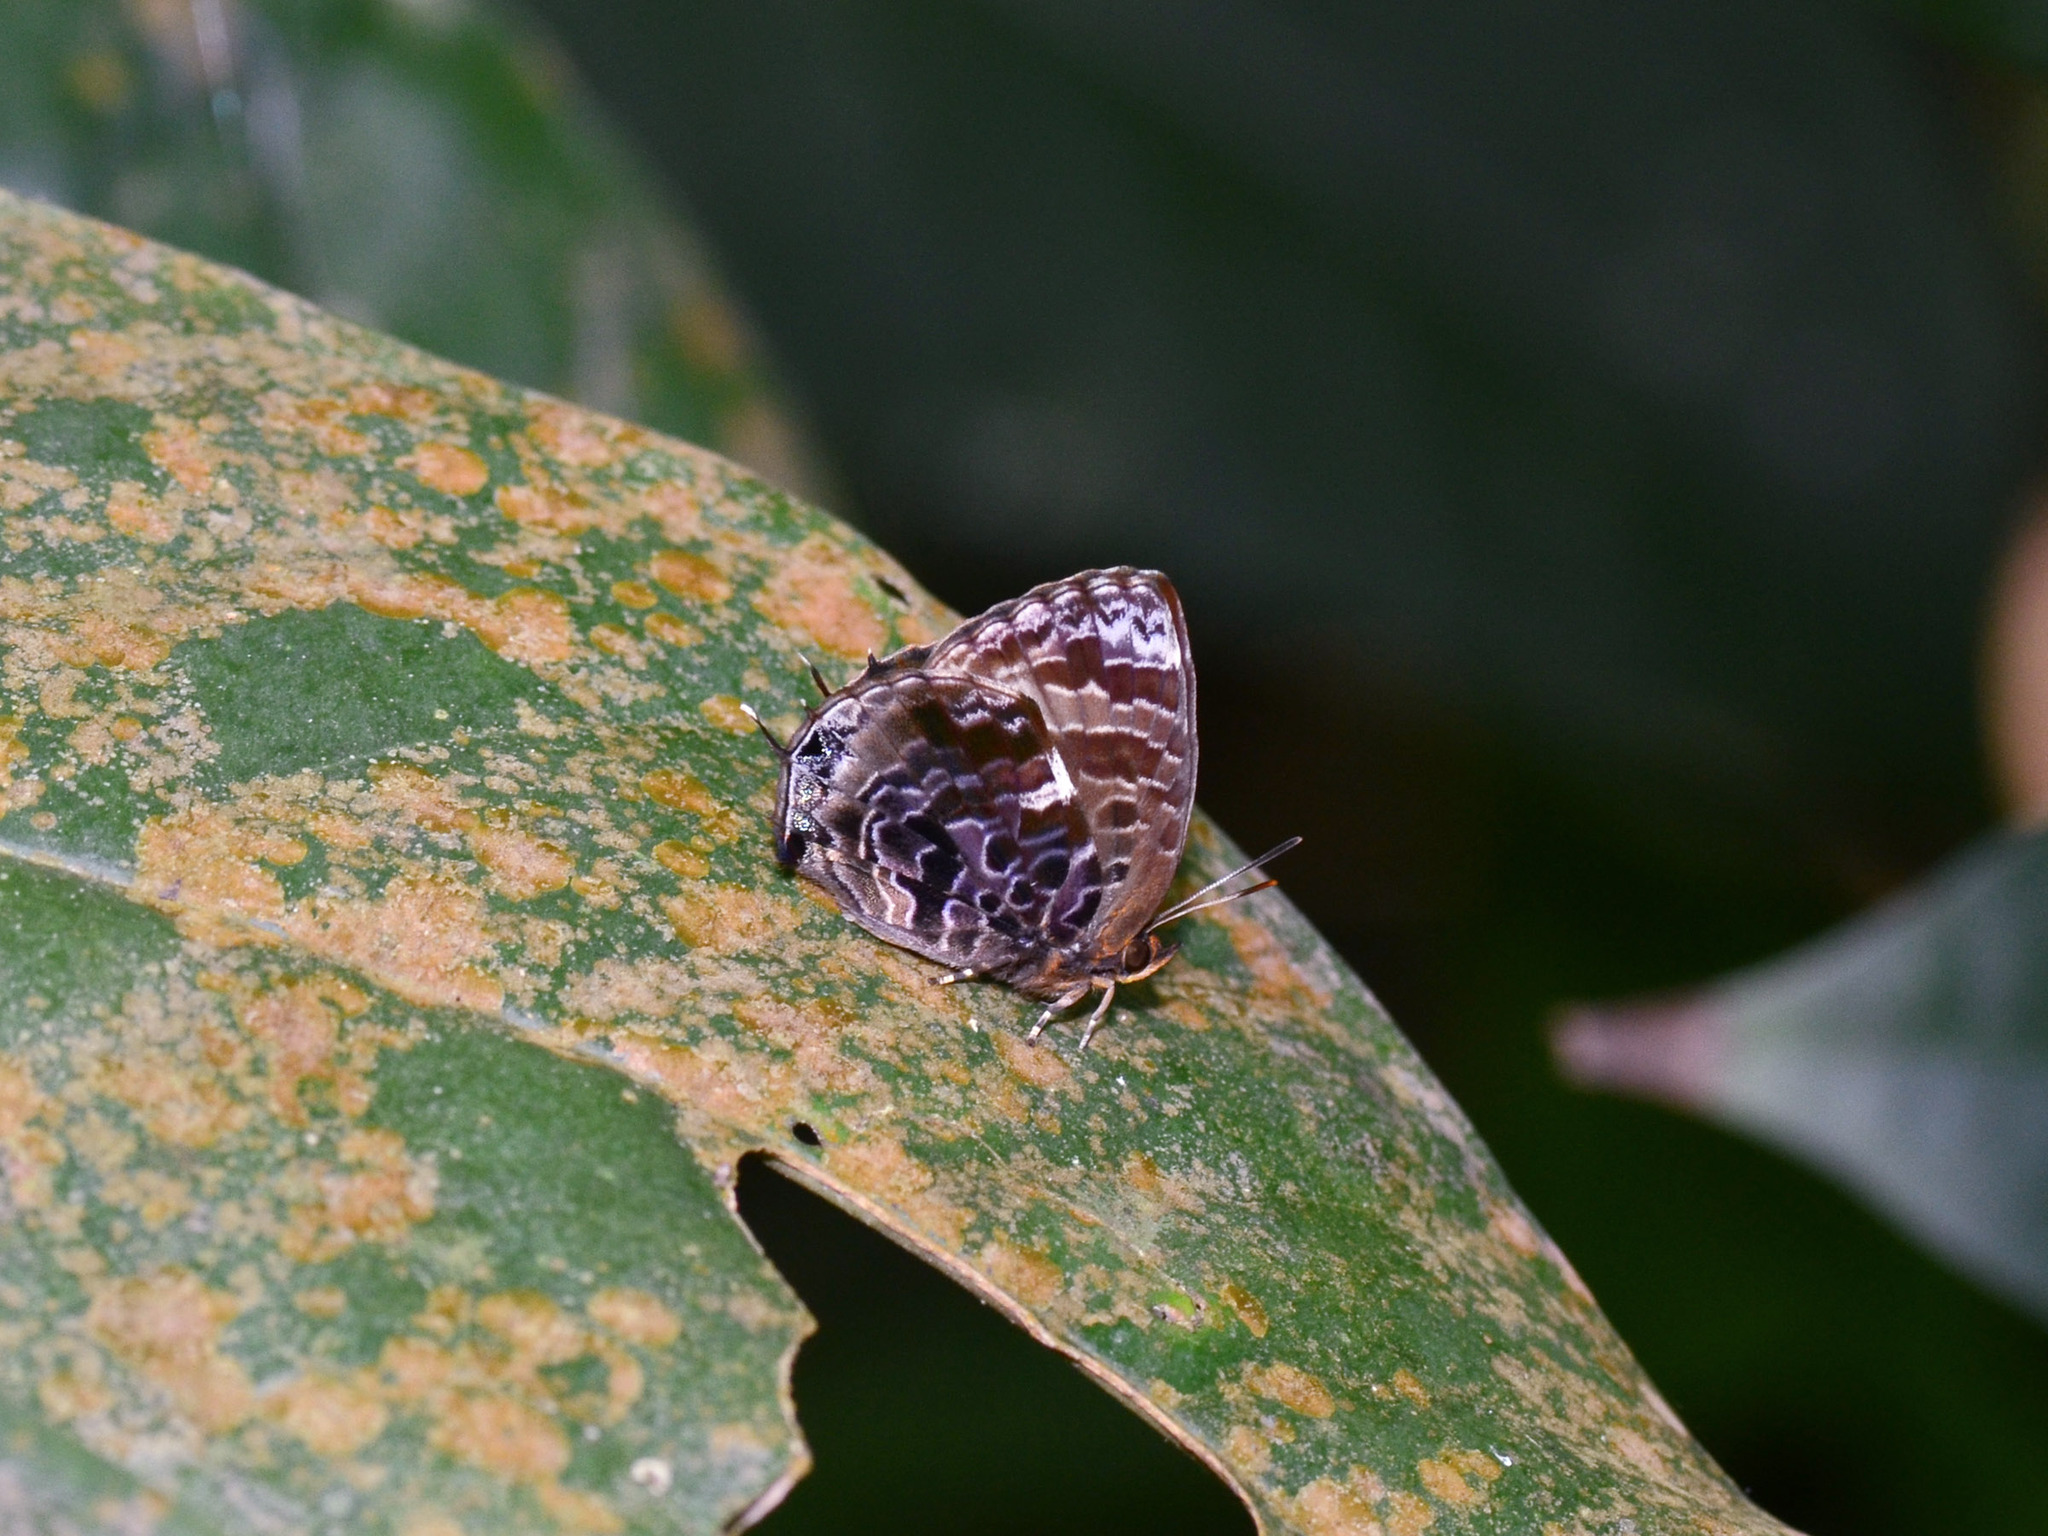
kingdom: Animalia
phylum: Arthropoda
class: Insecta
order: Lepidoptera
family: Lycaenidae
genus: Arhopala
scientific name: Arhopala abseus
